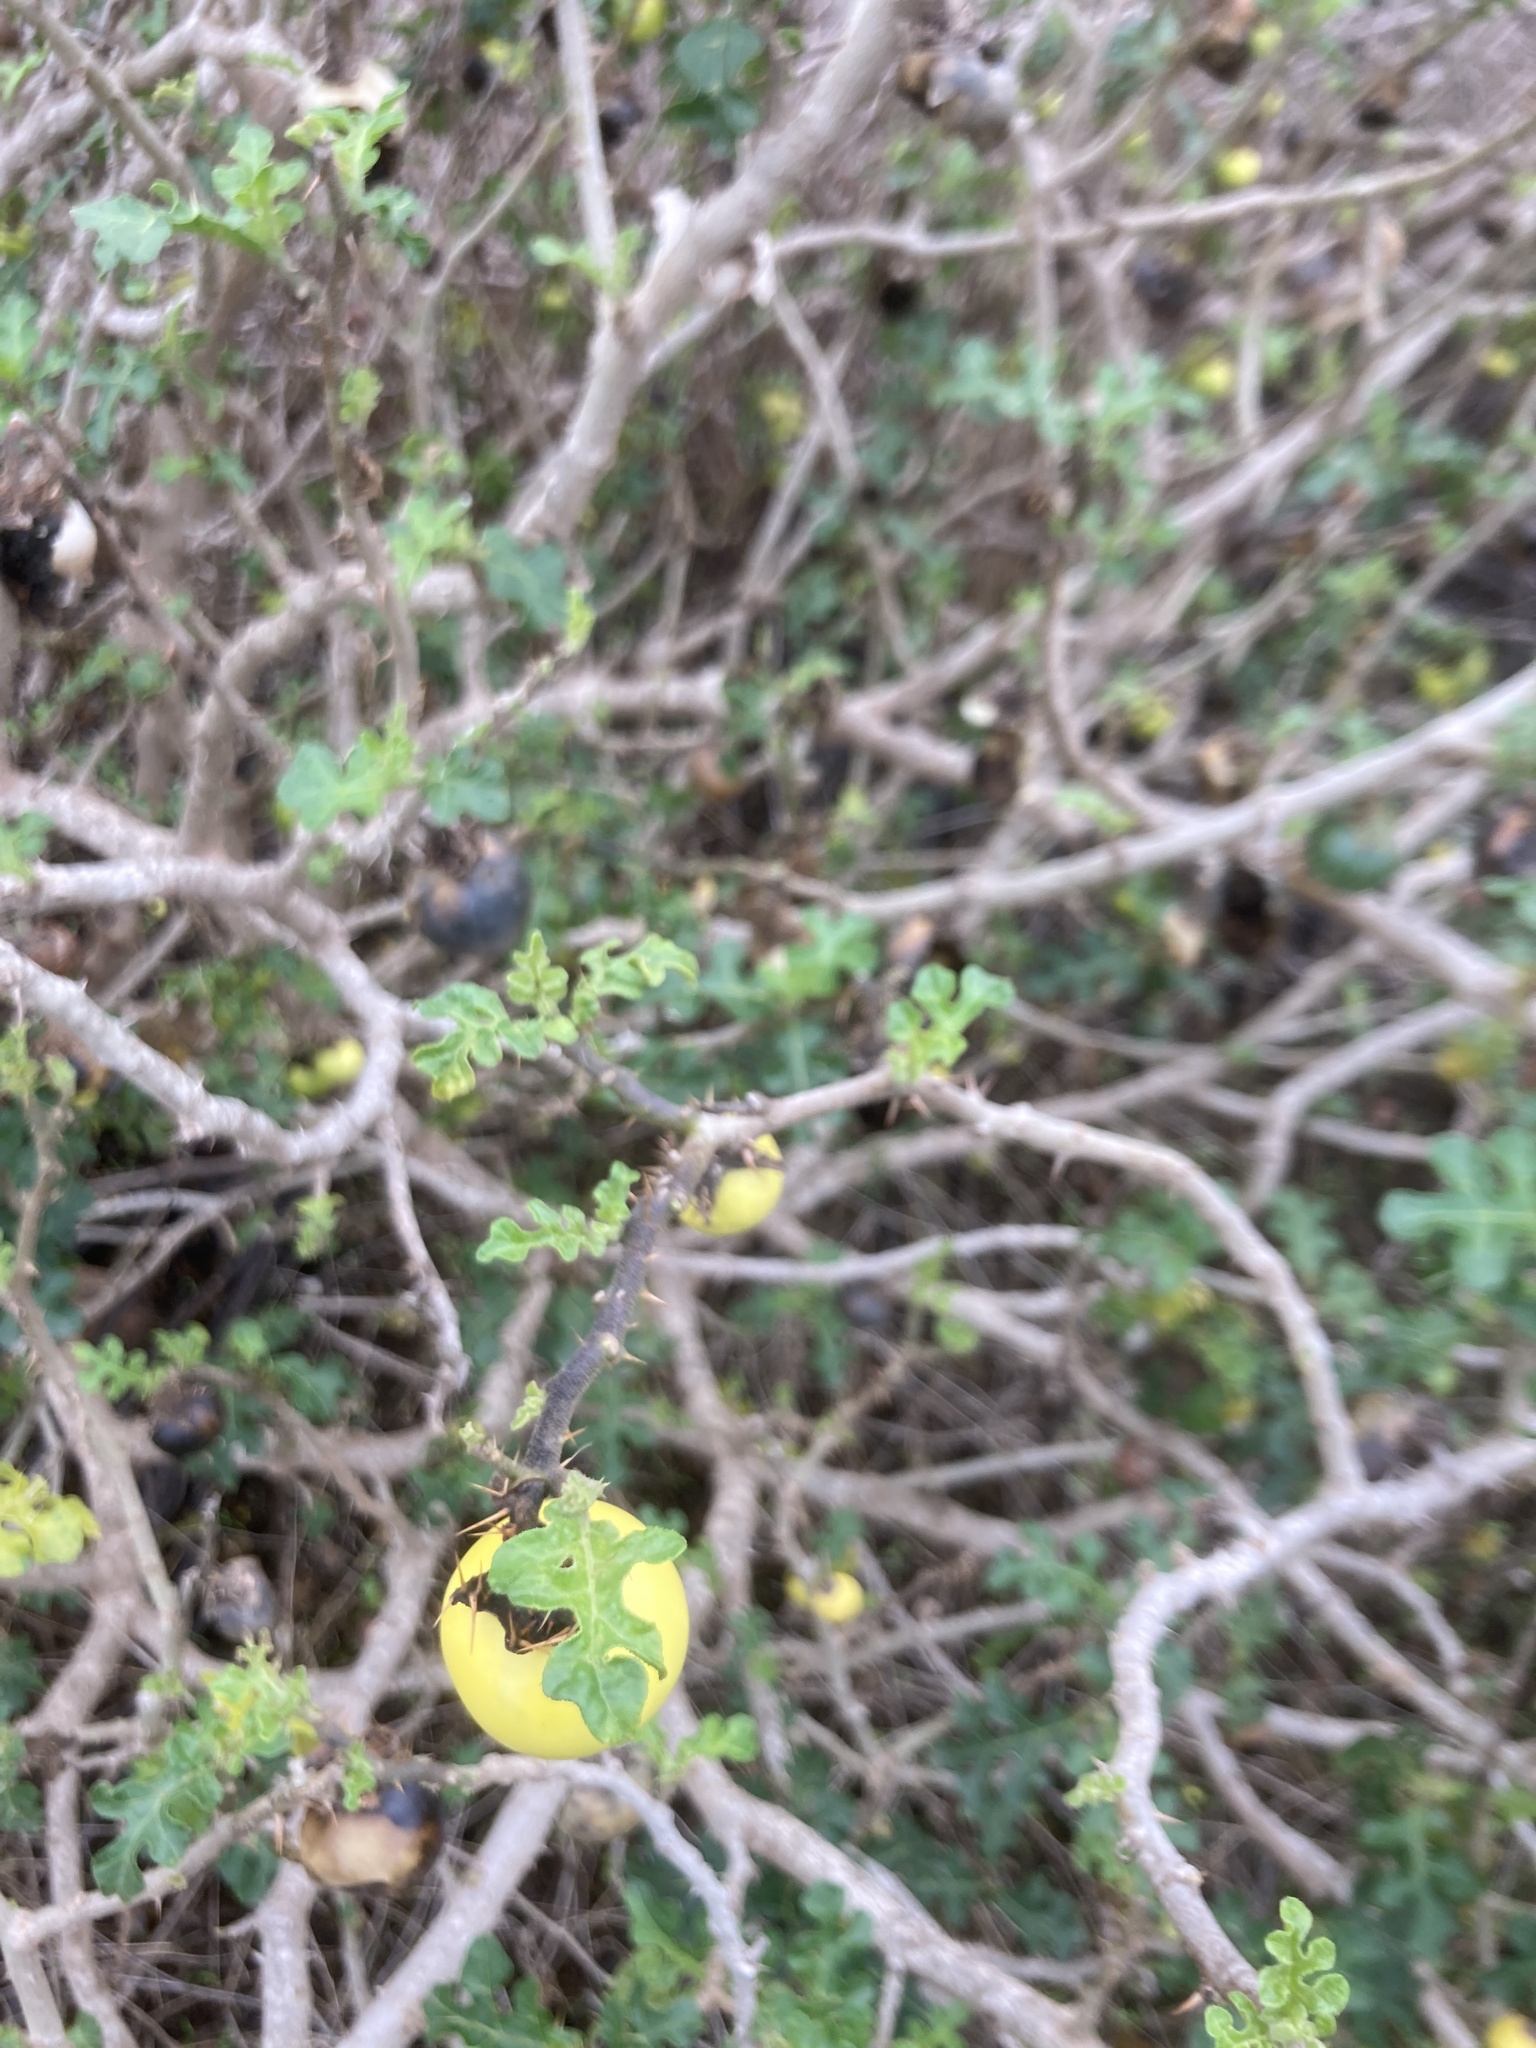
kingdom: Plantae
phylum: Tracheophyta
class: Magnoliopsida
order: Solanales
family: Solanaceae
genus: Solanum
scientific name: Solanum linnaeanum
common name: Nightshade
